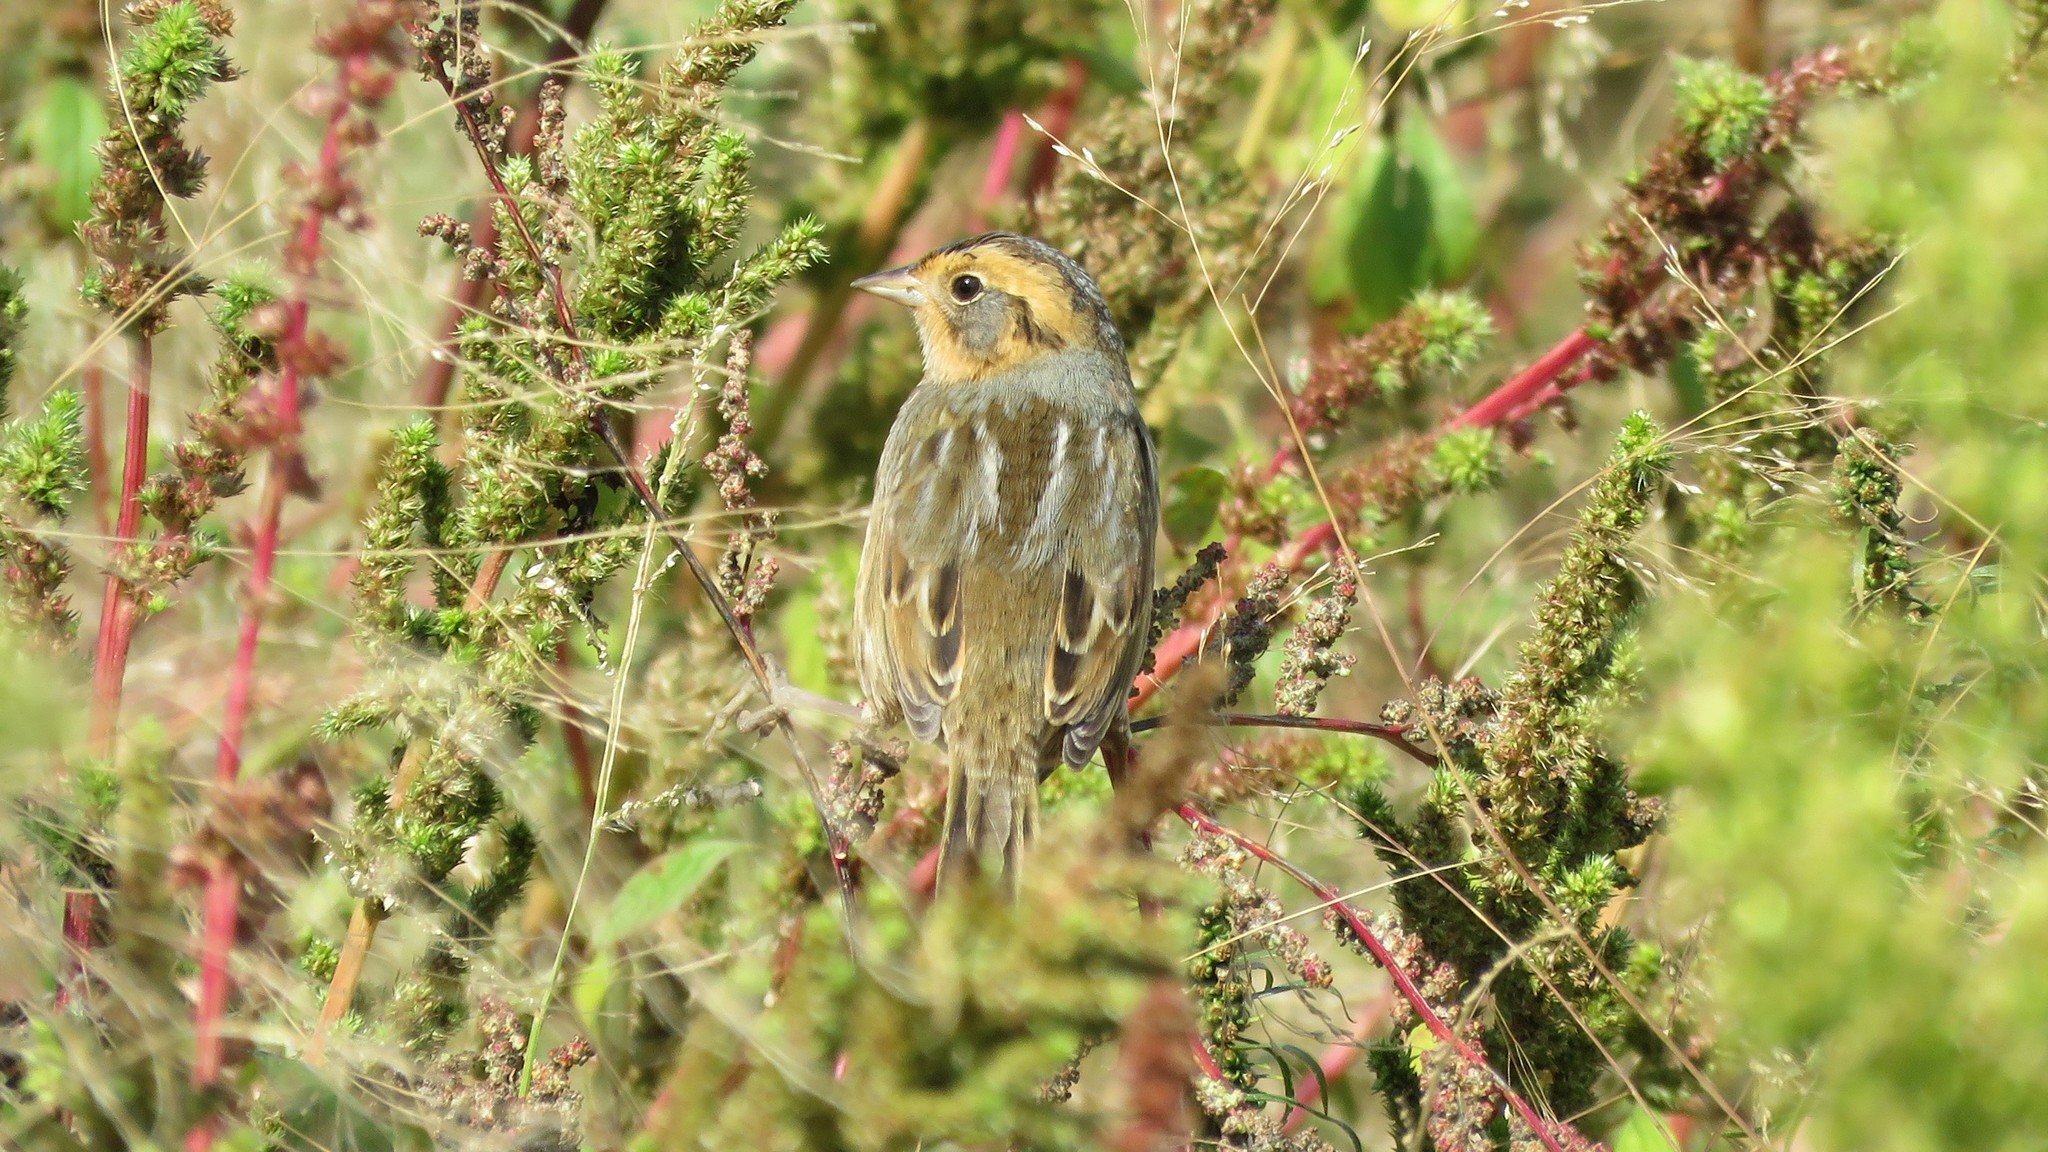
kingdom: Animalia
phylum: Chordata
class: Aves
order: Passeriformes
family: Passerellidae
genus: Ammospiza
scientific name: Ammospiza nelsoni
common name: Nelson's sparrow
